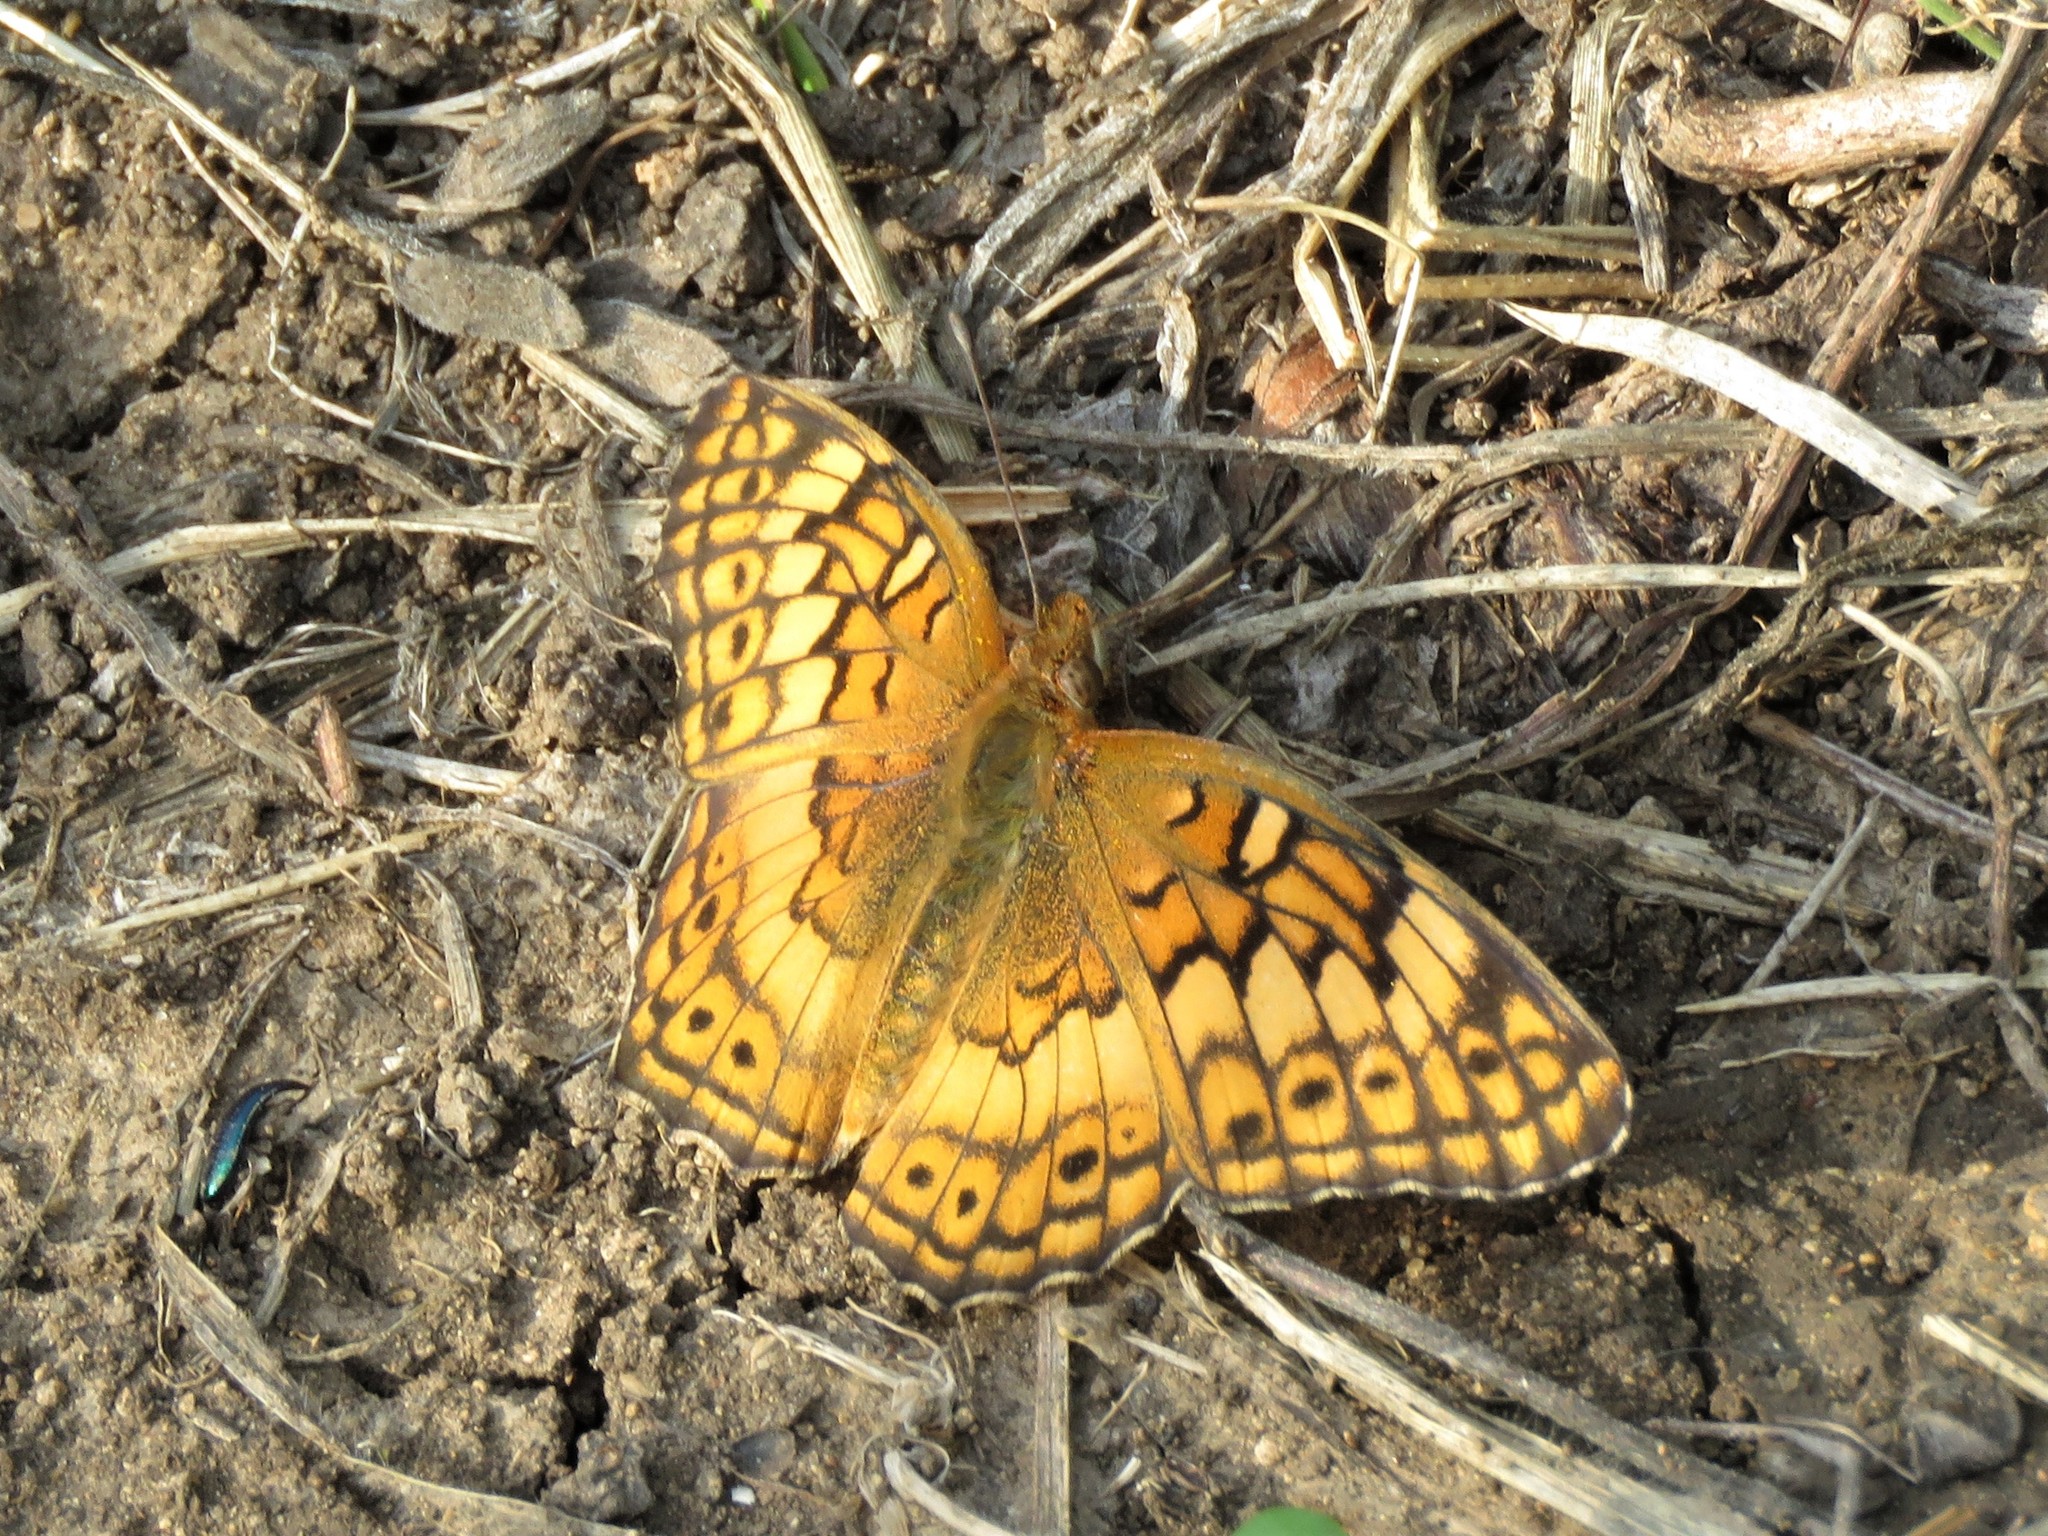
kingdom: Animalia
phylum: Arthropoda
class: Insecta
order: Lepidoptera
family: Nymphalidae
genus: Euptoieta
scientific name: Euptoieta claudia
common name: Variegated fritillary
